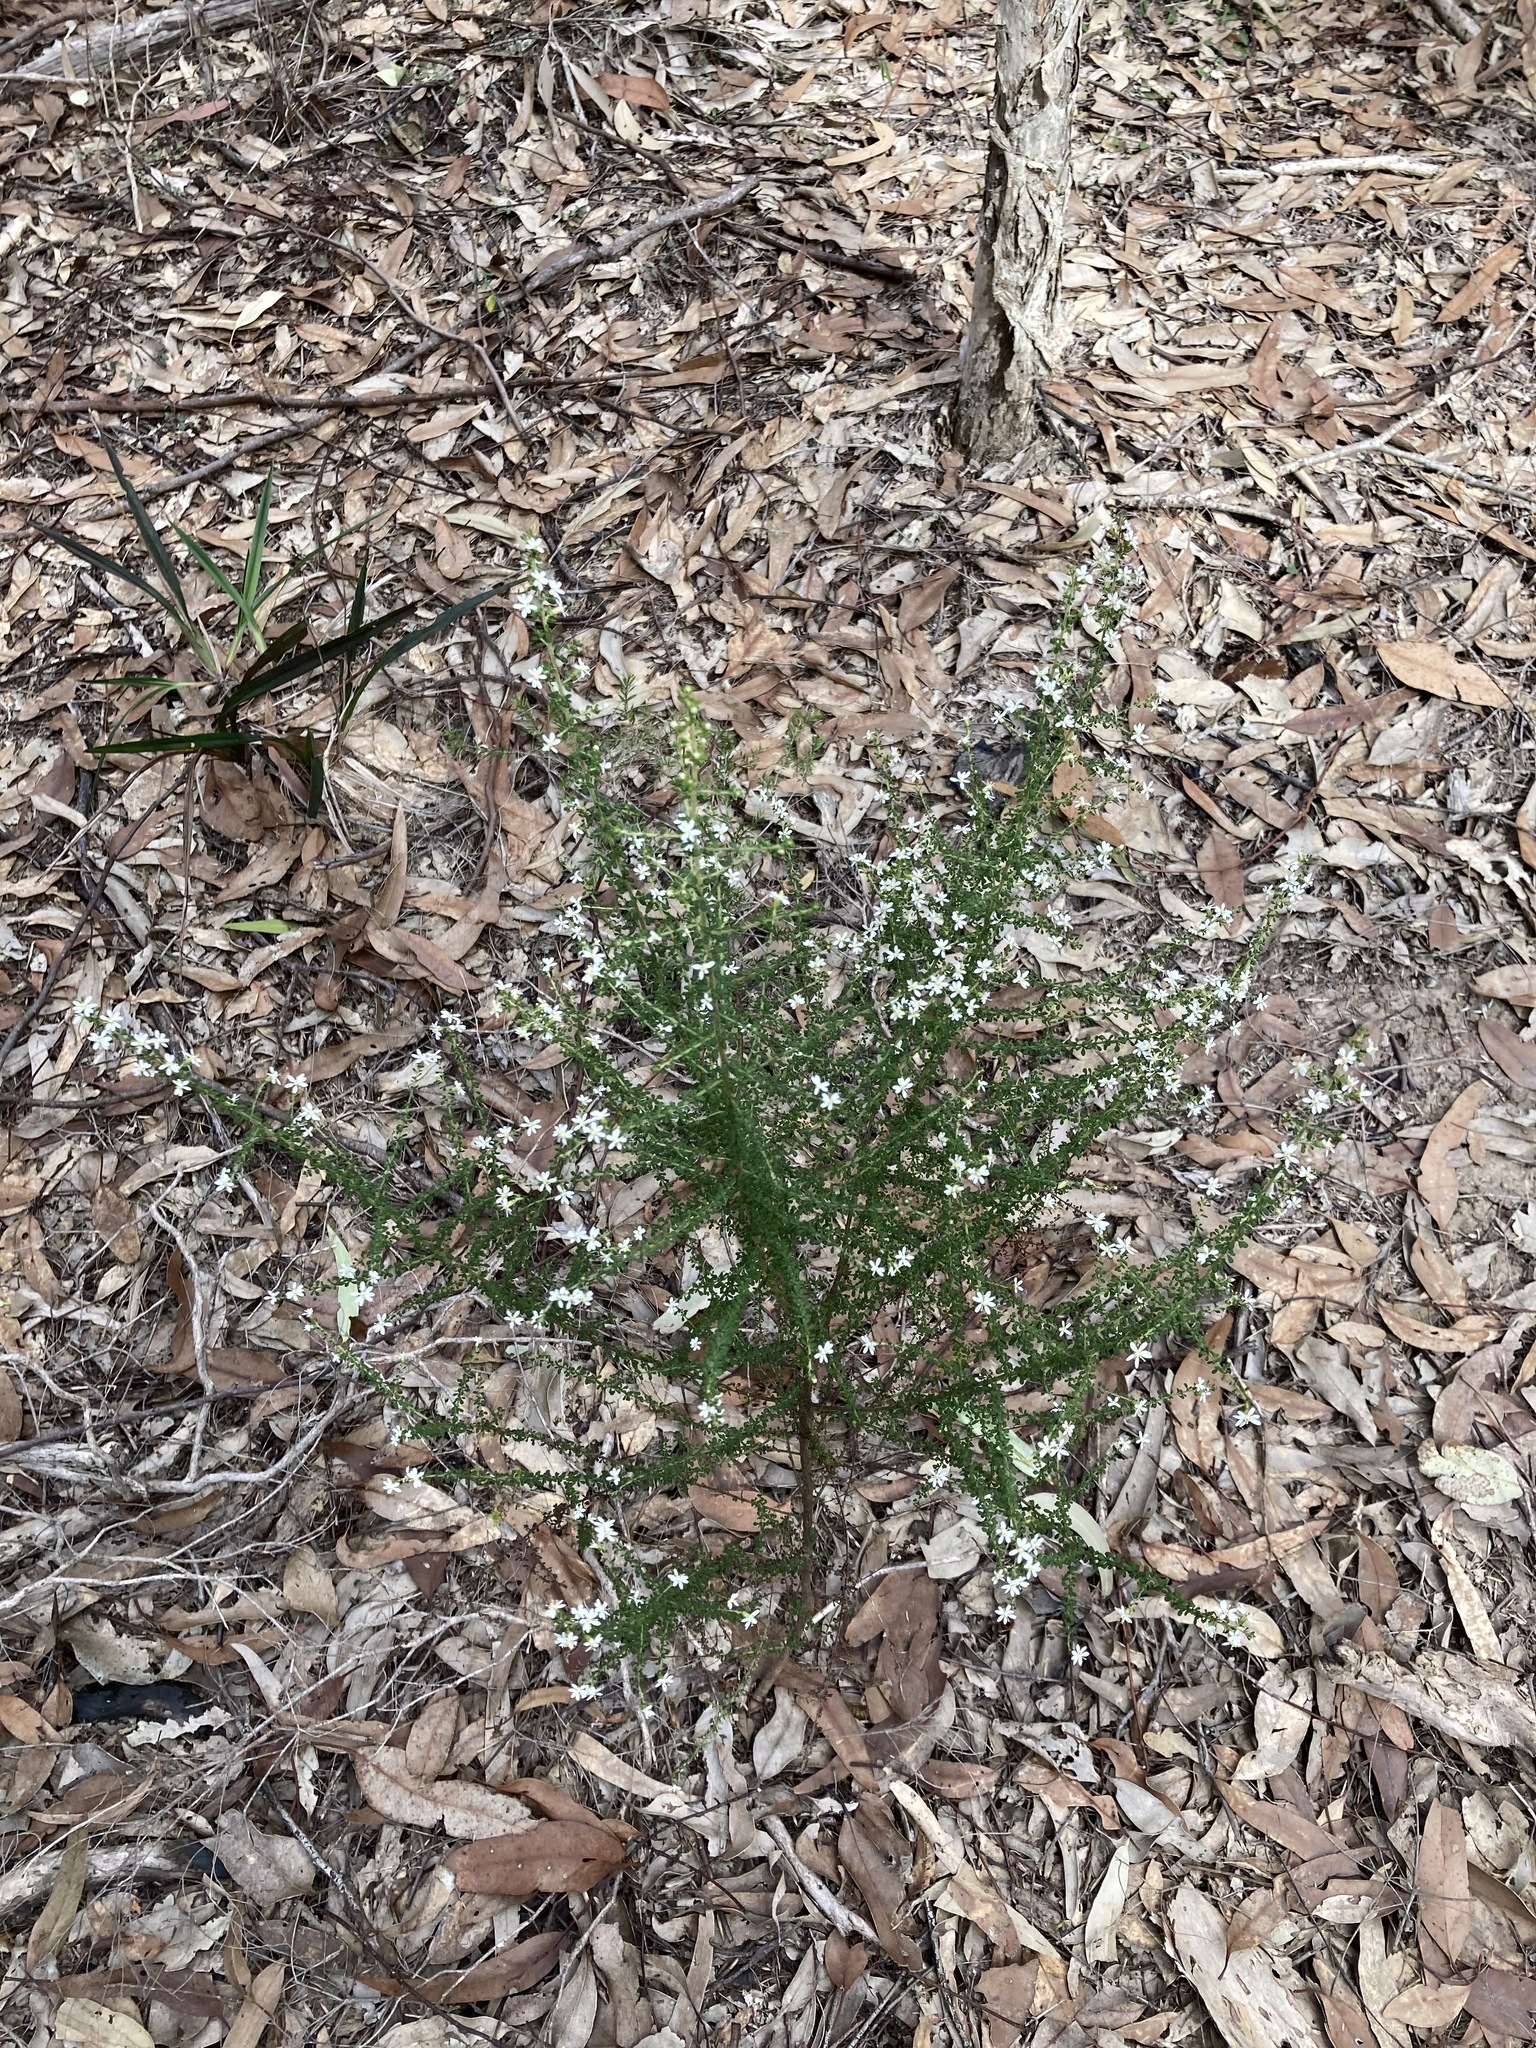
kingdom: Plantae
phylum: Tracheophyta
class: Magnoliopsida
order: Asterales
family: Asteraceae
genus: Olearia
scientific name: Olearia microphylla
